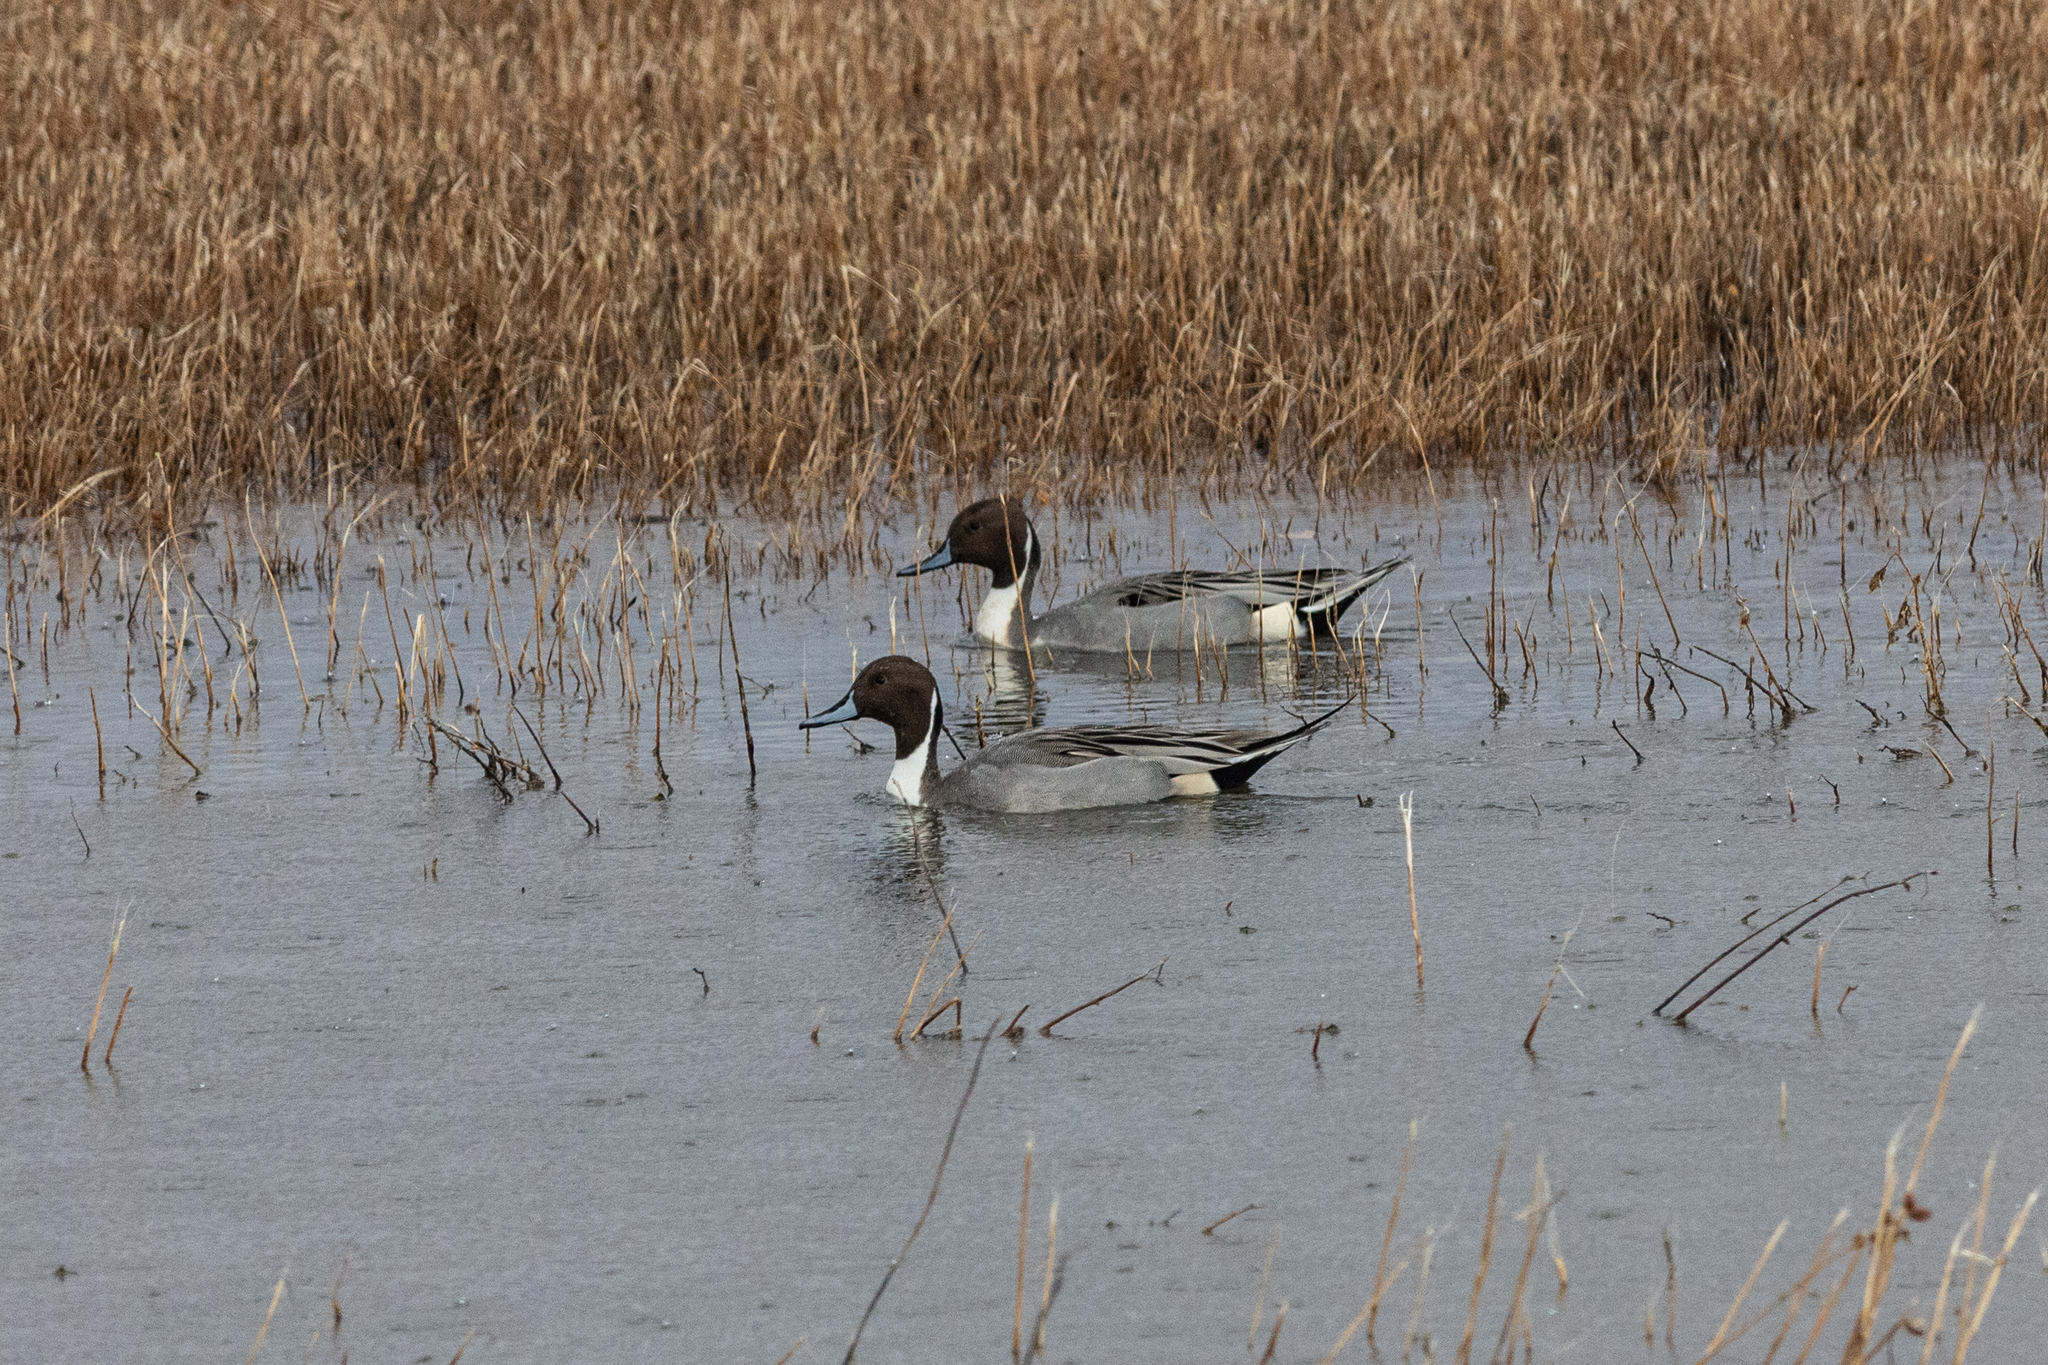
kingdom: Animalia
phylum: Chordata
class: Aves
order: Anseriformes
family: Anatidae
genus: Anas
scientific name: Anas acuta
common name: Northern pintail
